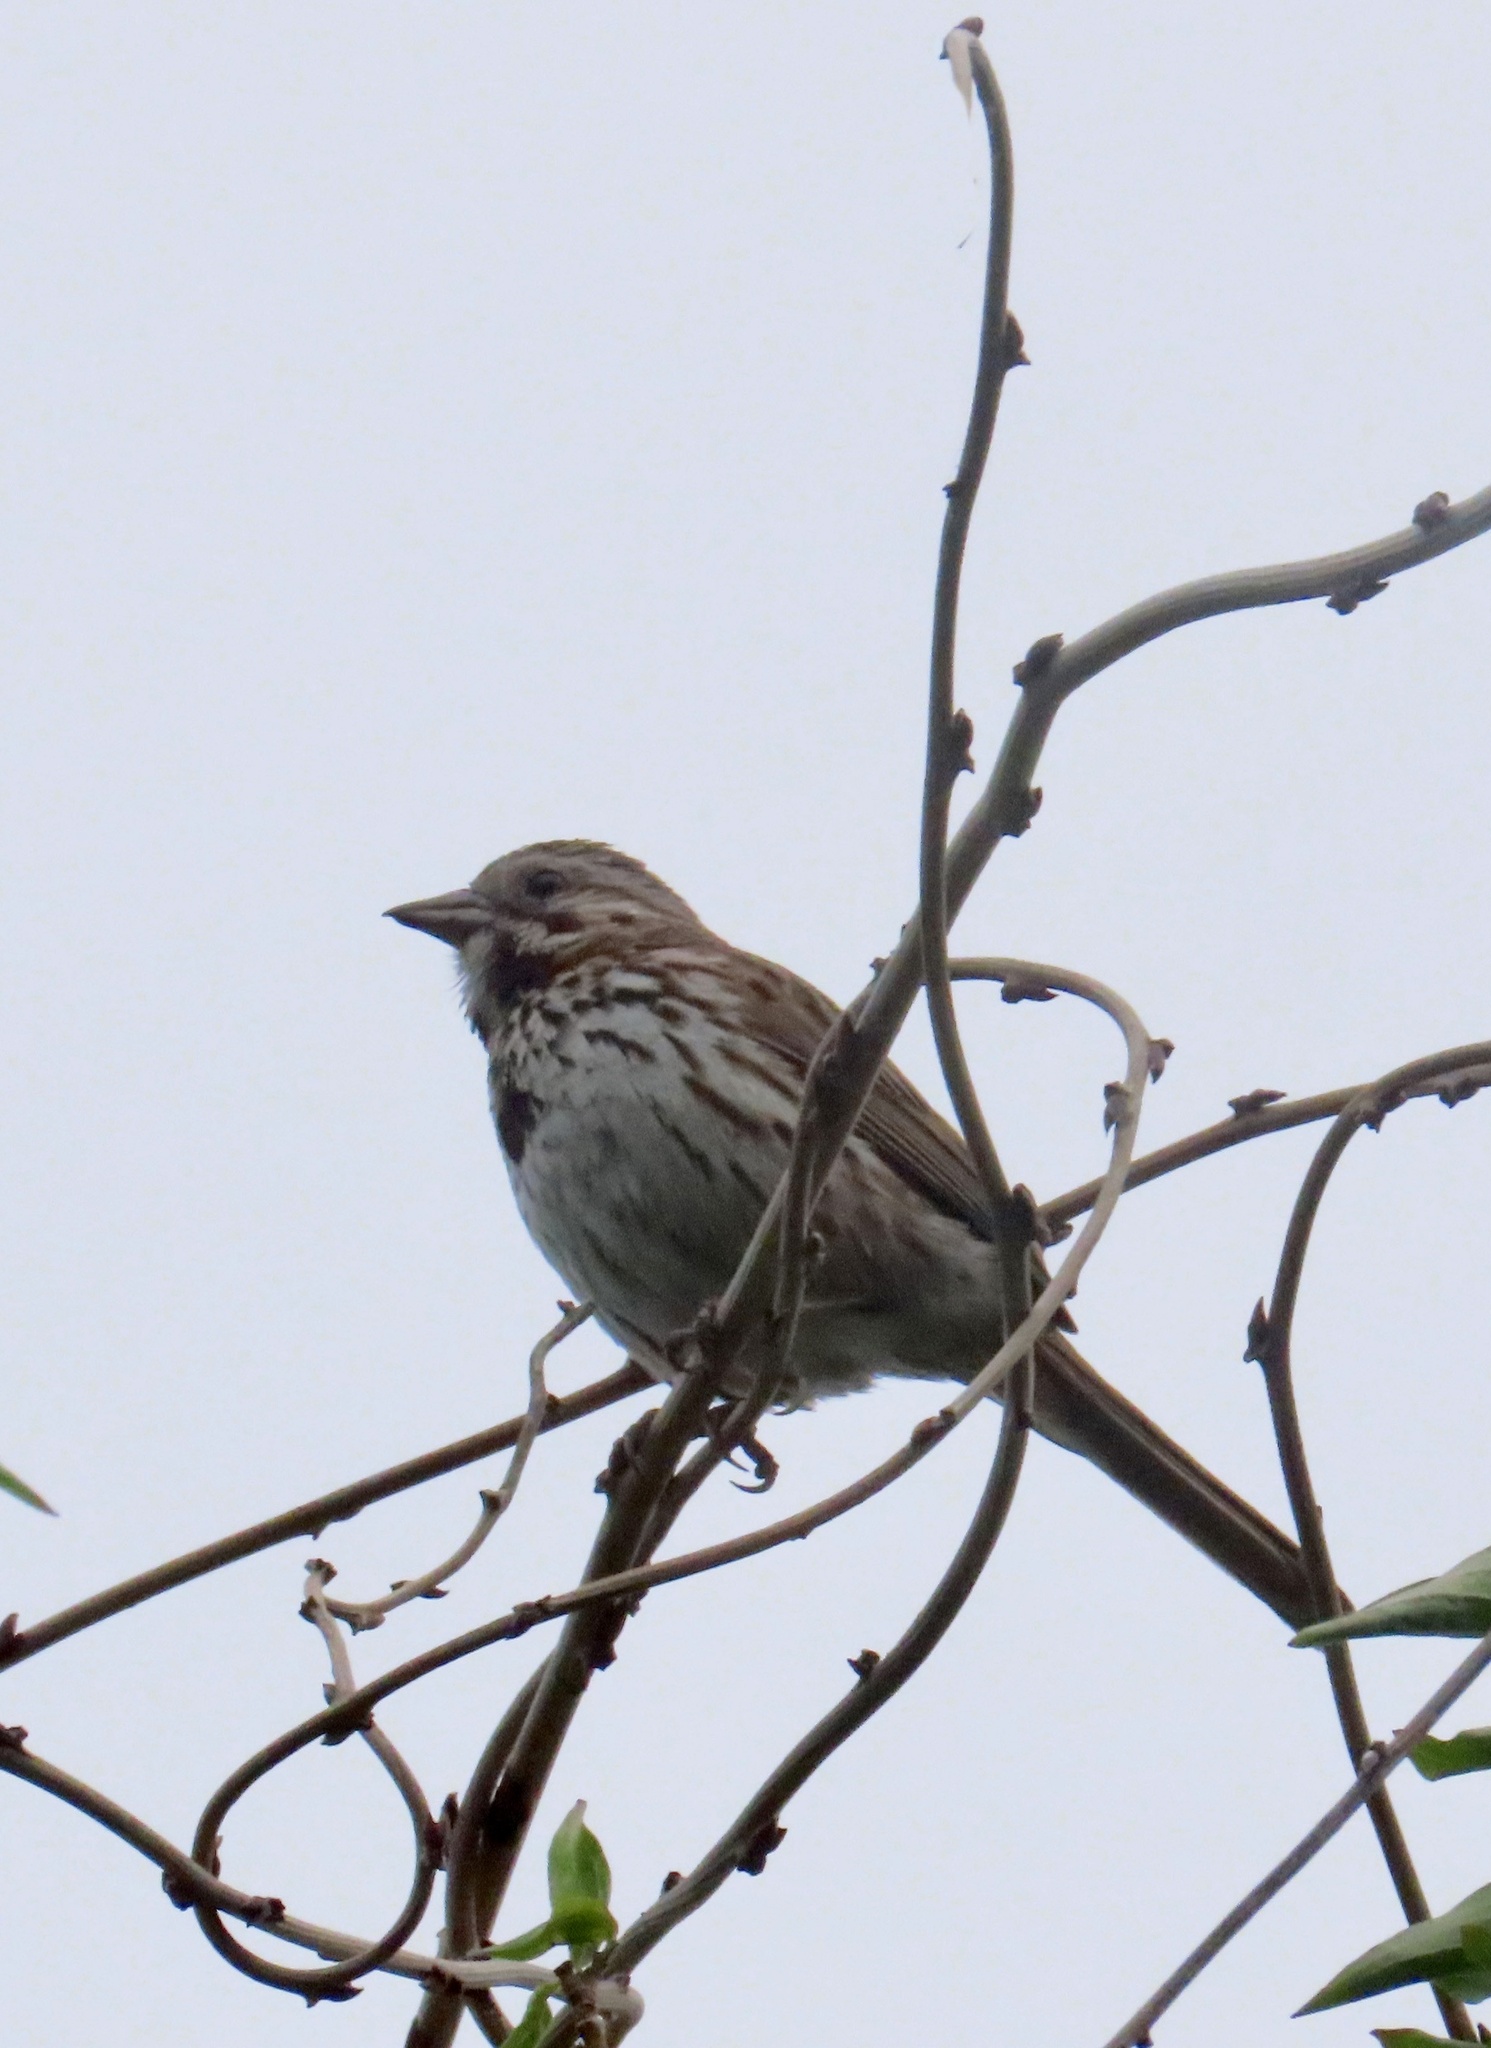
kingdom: Animalia
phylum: Chordata
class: Aves
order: Passeriformes
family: Passerellidae
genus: Melospiza
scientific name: Melospiza melodia
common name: Song sparrow
